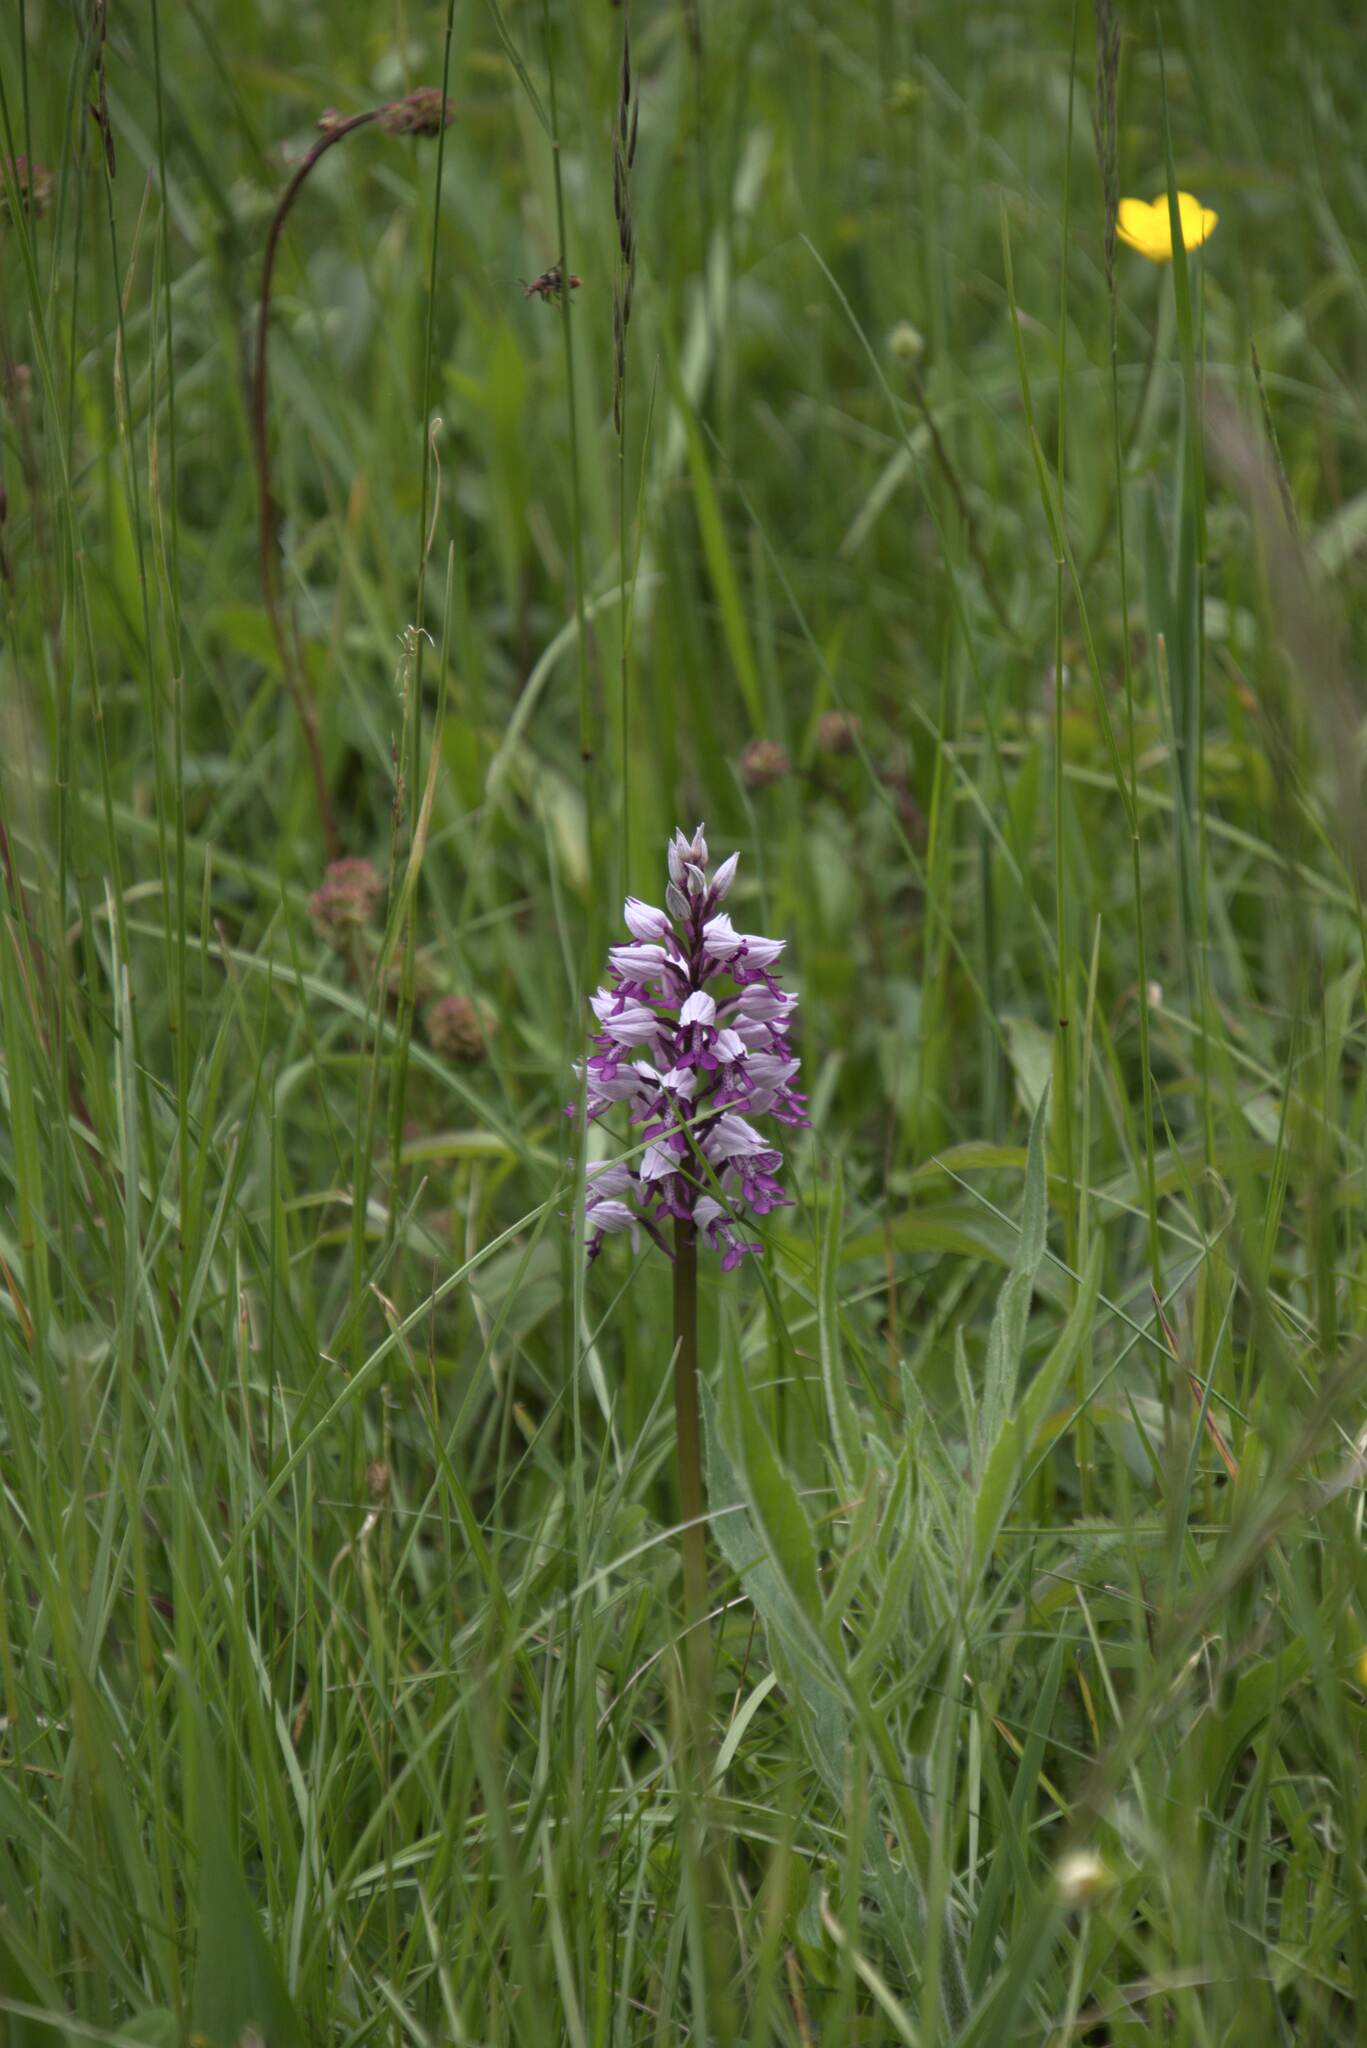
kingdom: Plantae
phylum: Tracheophyta
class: Liliopsida
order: Asparagales
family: Orchidaceae
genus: Orchis
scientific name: Orchis militaris
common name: Military orchid
